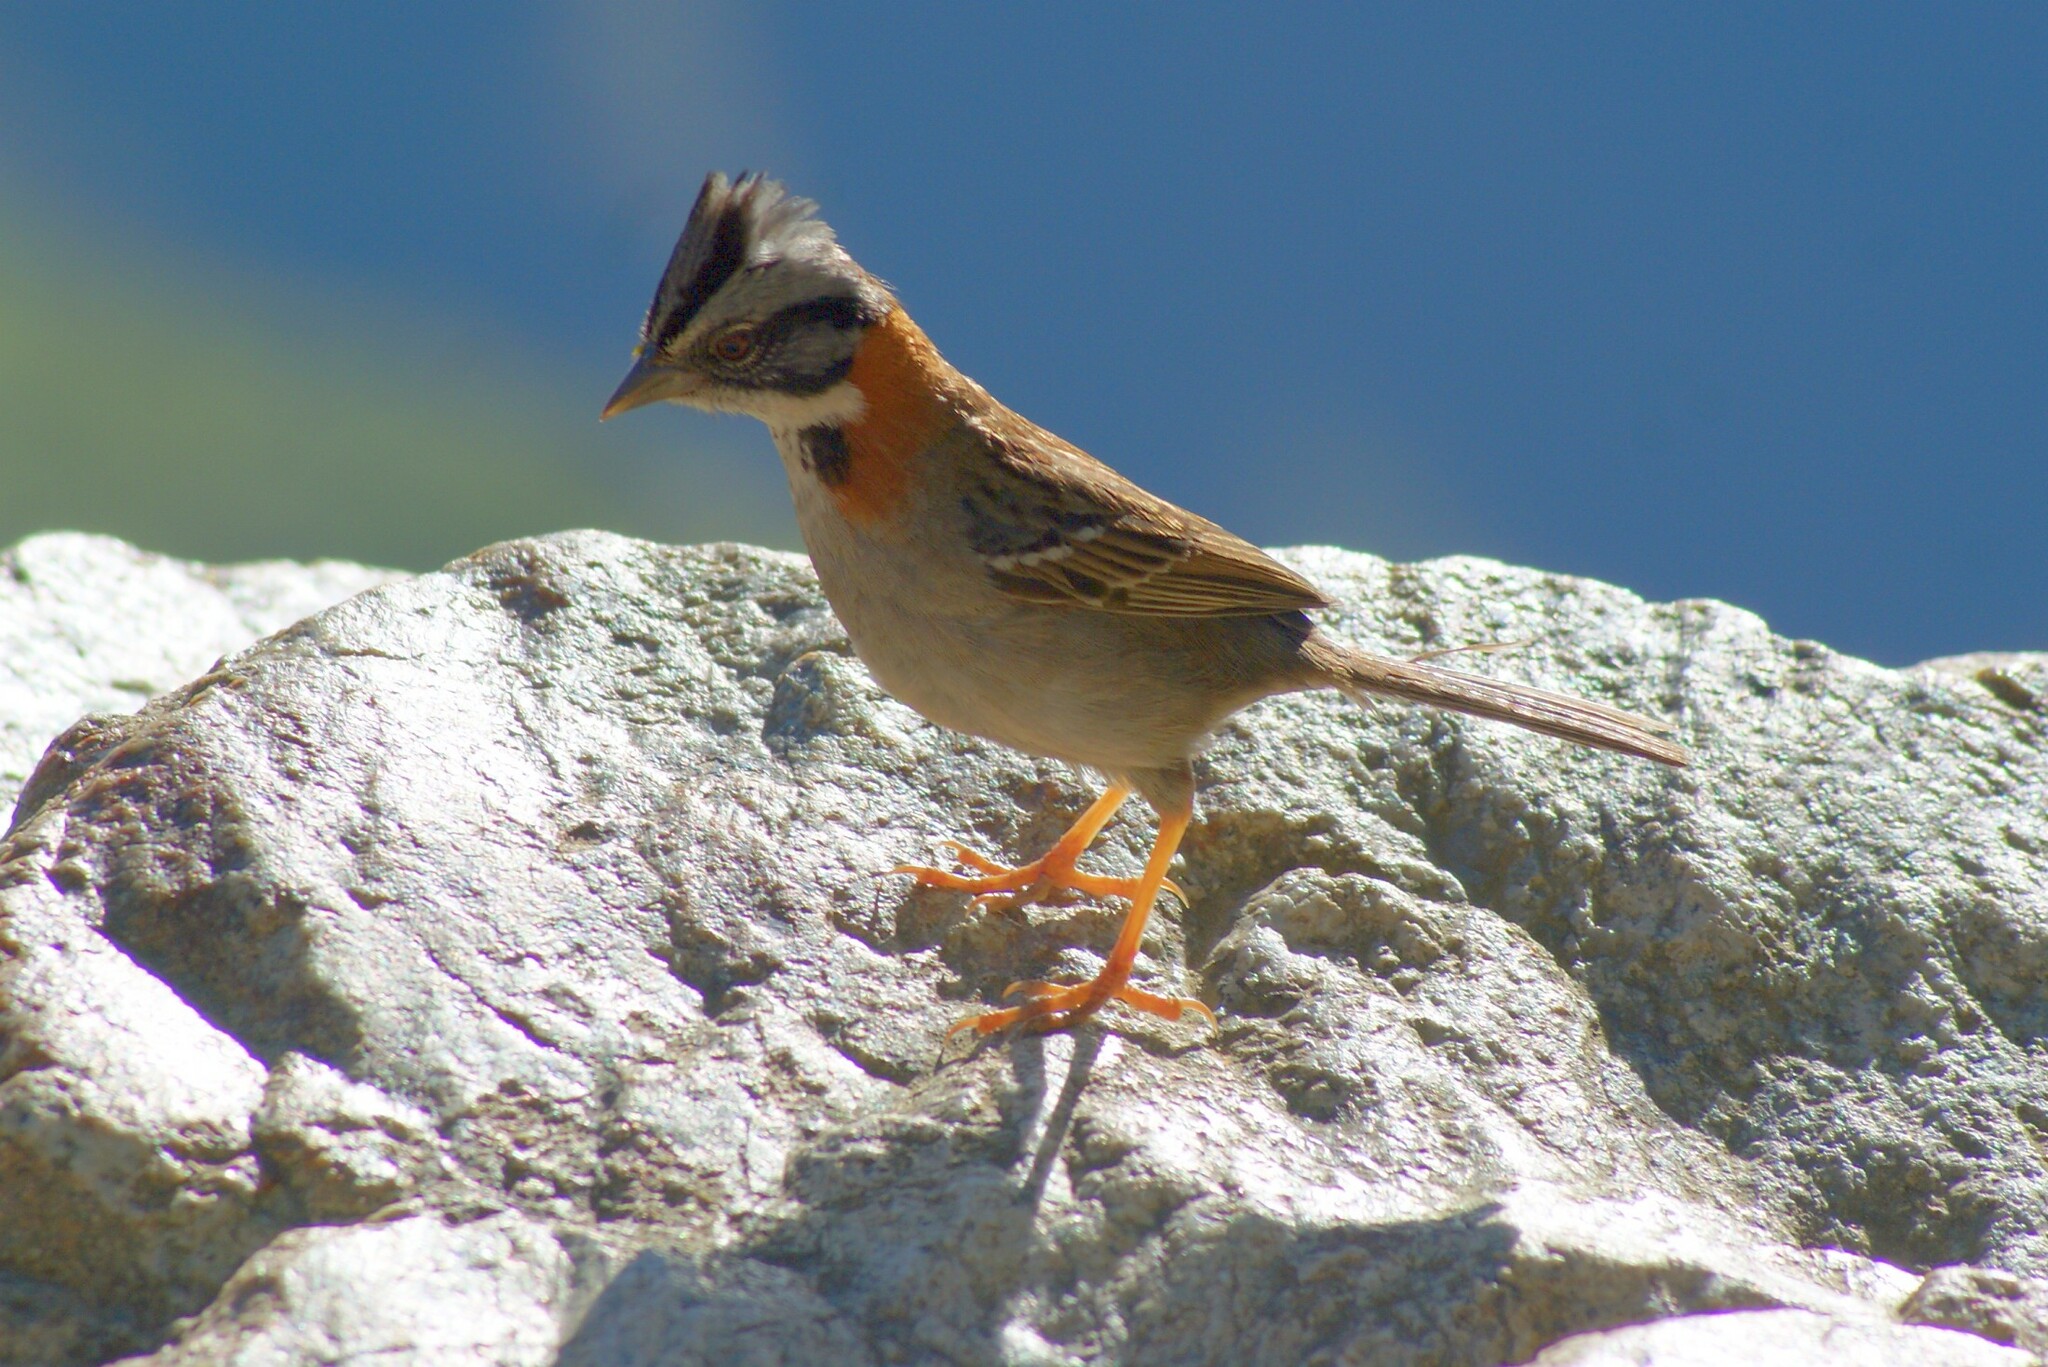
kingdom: Animalia
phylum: Chordata
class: Aves
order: Passeriformes
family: Passerellidae
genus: Zonotrichia
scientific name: Zonotrichia capensis
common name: Rufous-collared sparrow
